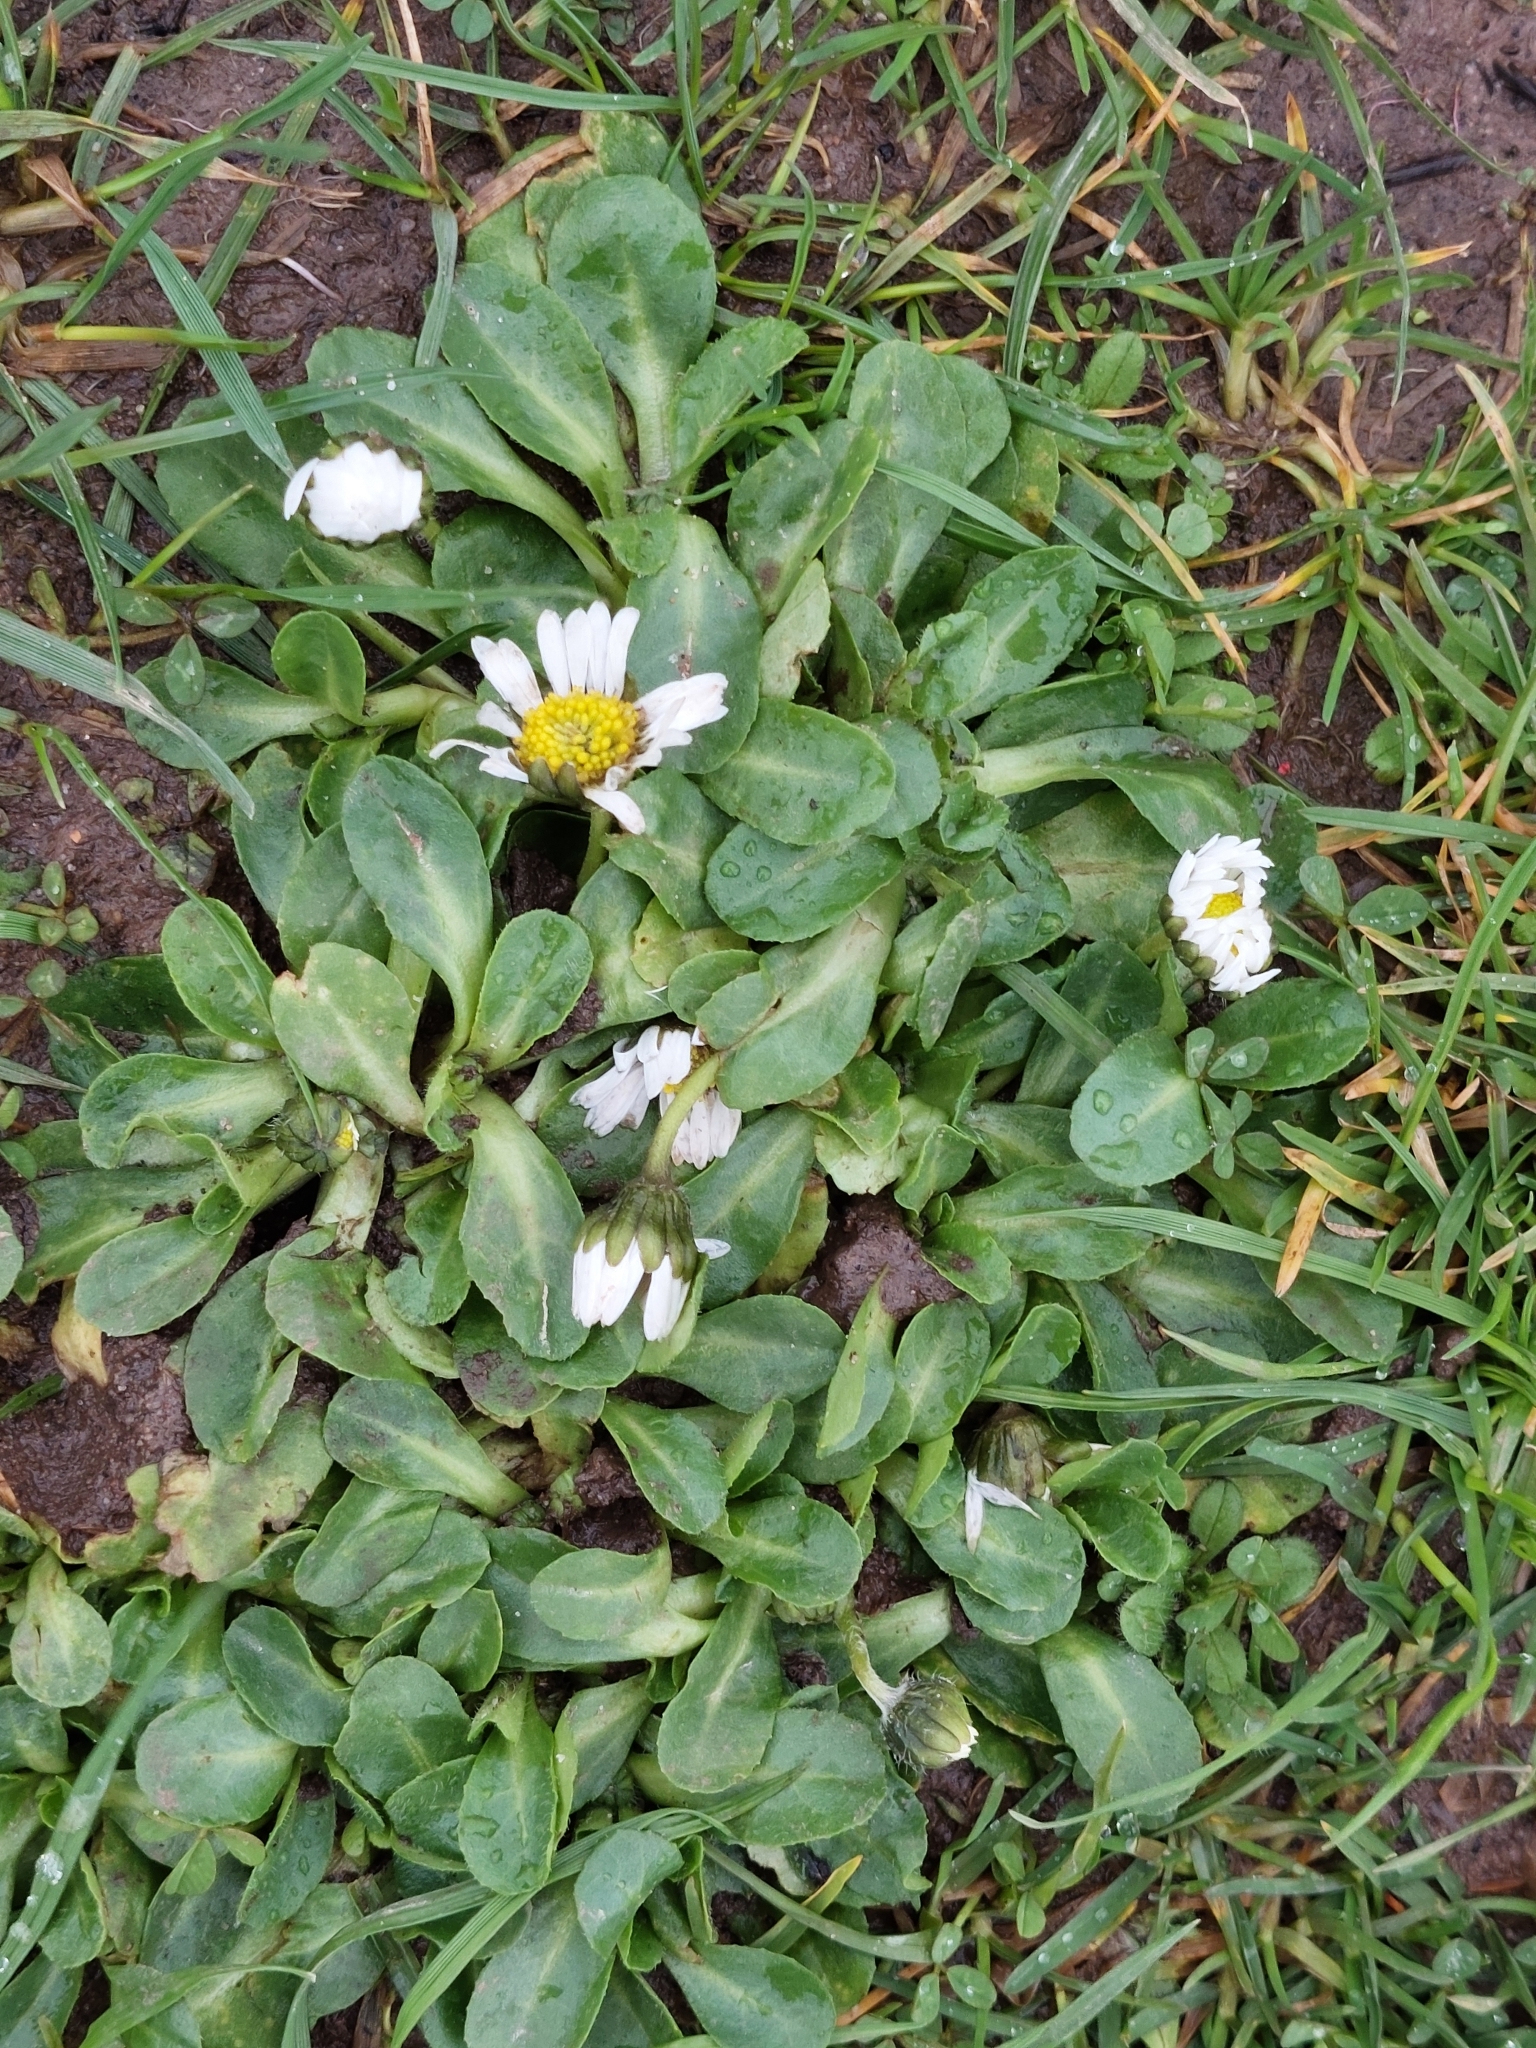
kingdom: Plantae
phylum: Tracheophyta
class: Magnoliopsida
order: Asterales
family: Asteraceae
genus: Bellis
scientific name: Bellis perennis
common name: Lawndaisy
